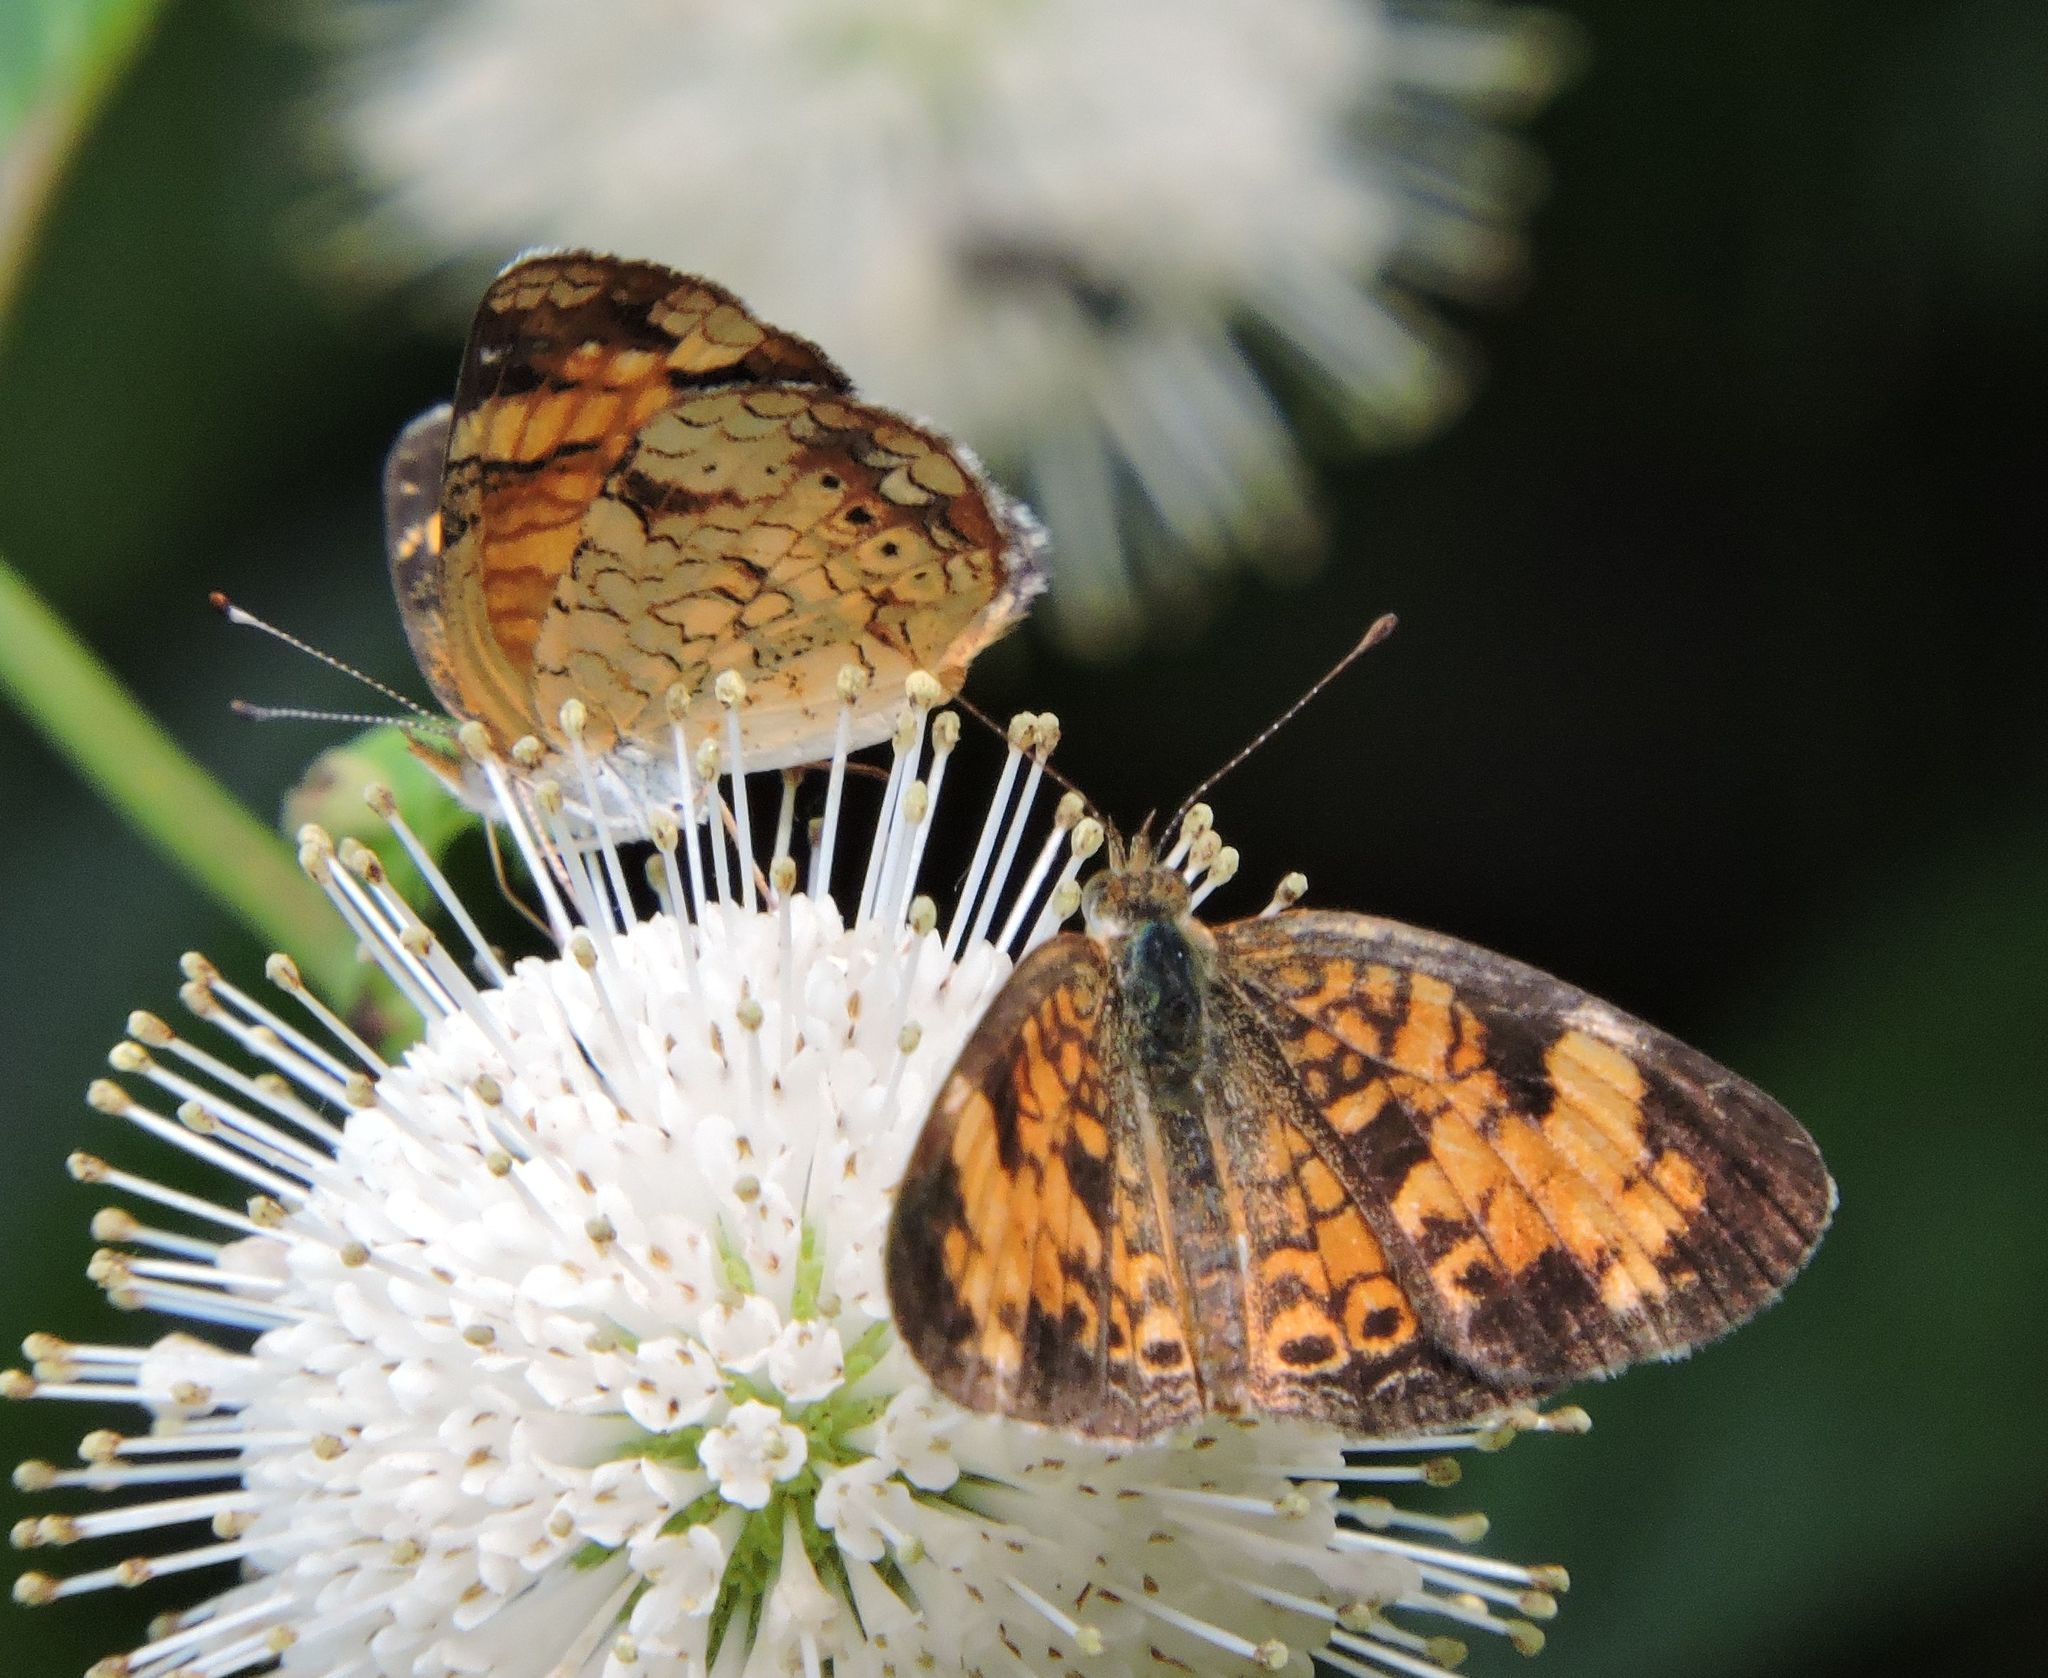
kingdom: Animalia
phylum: Arthropoda
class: Insecta
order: Lepidoptera
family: Nymphalidae
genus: Phyciodes
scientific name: Phyciodes tharos
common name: Pearl crescent
